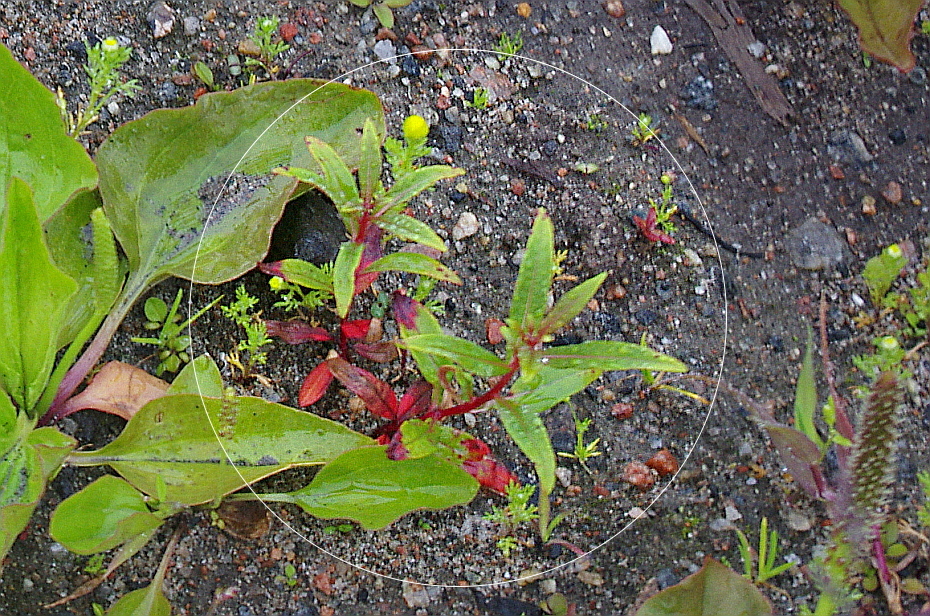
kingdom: Plantae
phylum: Tracheophyta
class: Magnoliopsida
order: Myrtales
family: Onagraceae
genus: Chamaenerion
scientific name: Chamaenerion angustifolium
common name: Fireweed
